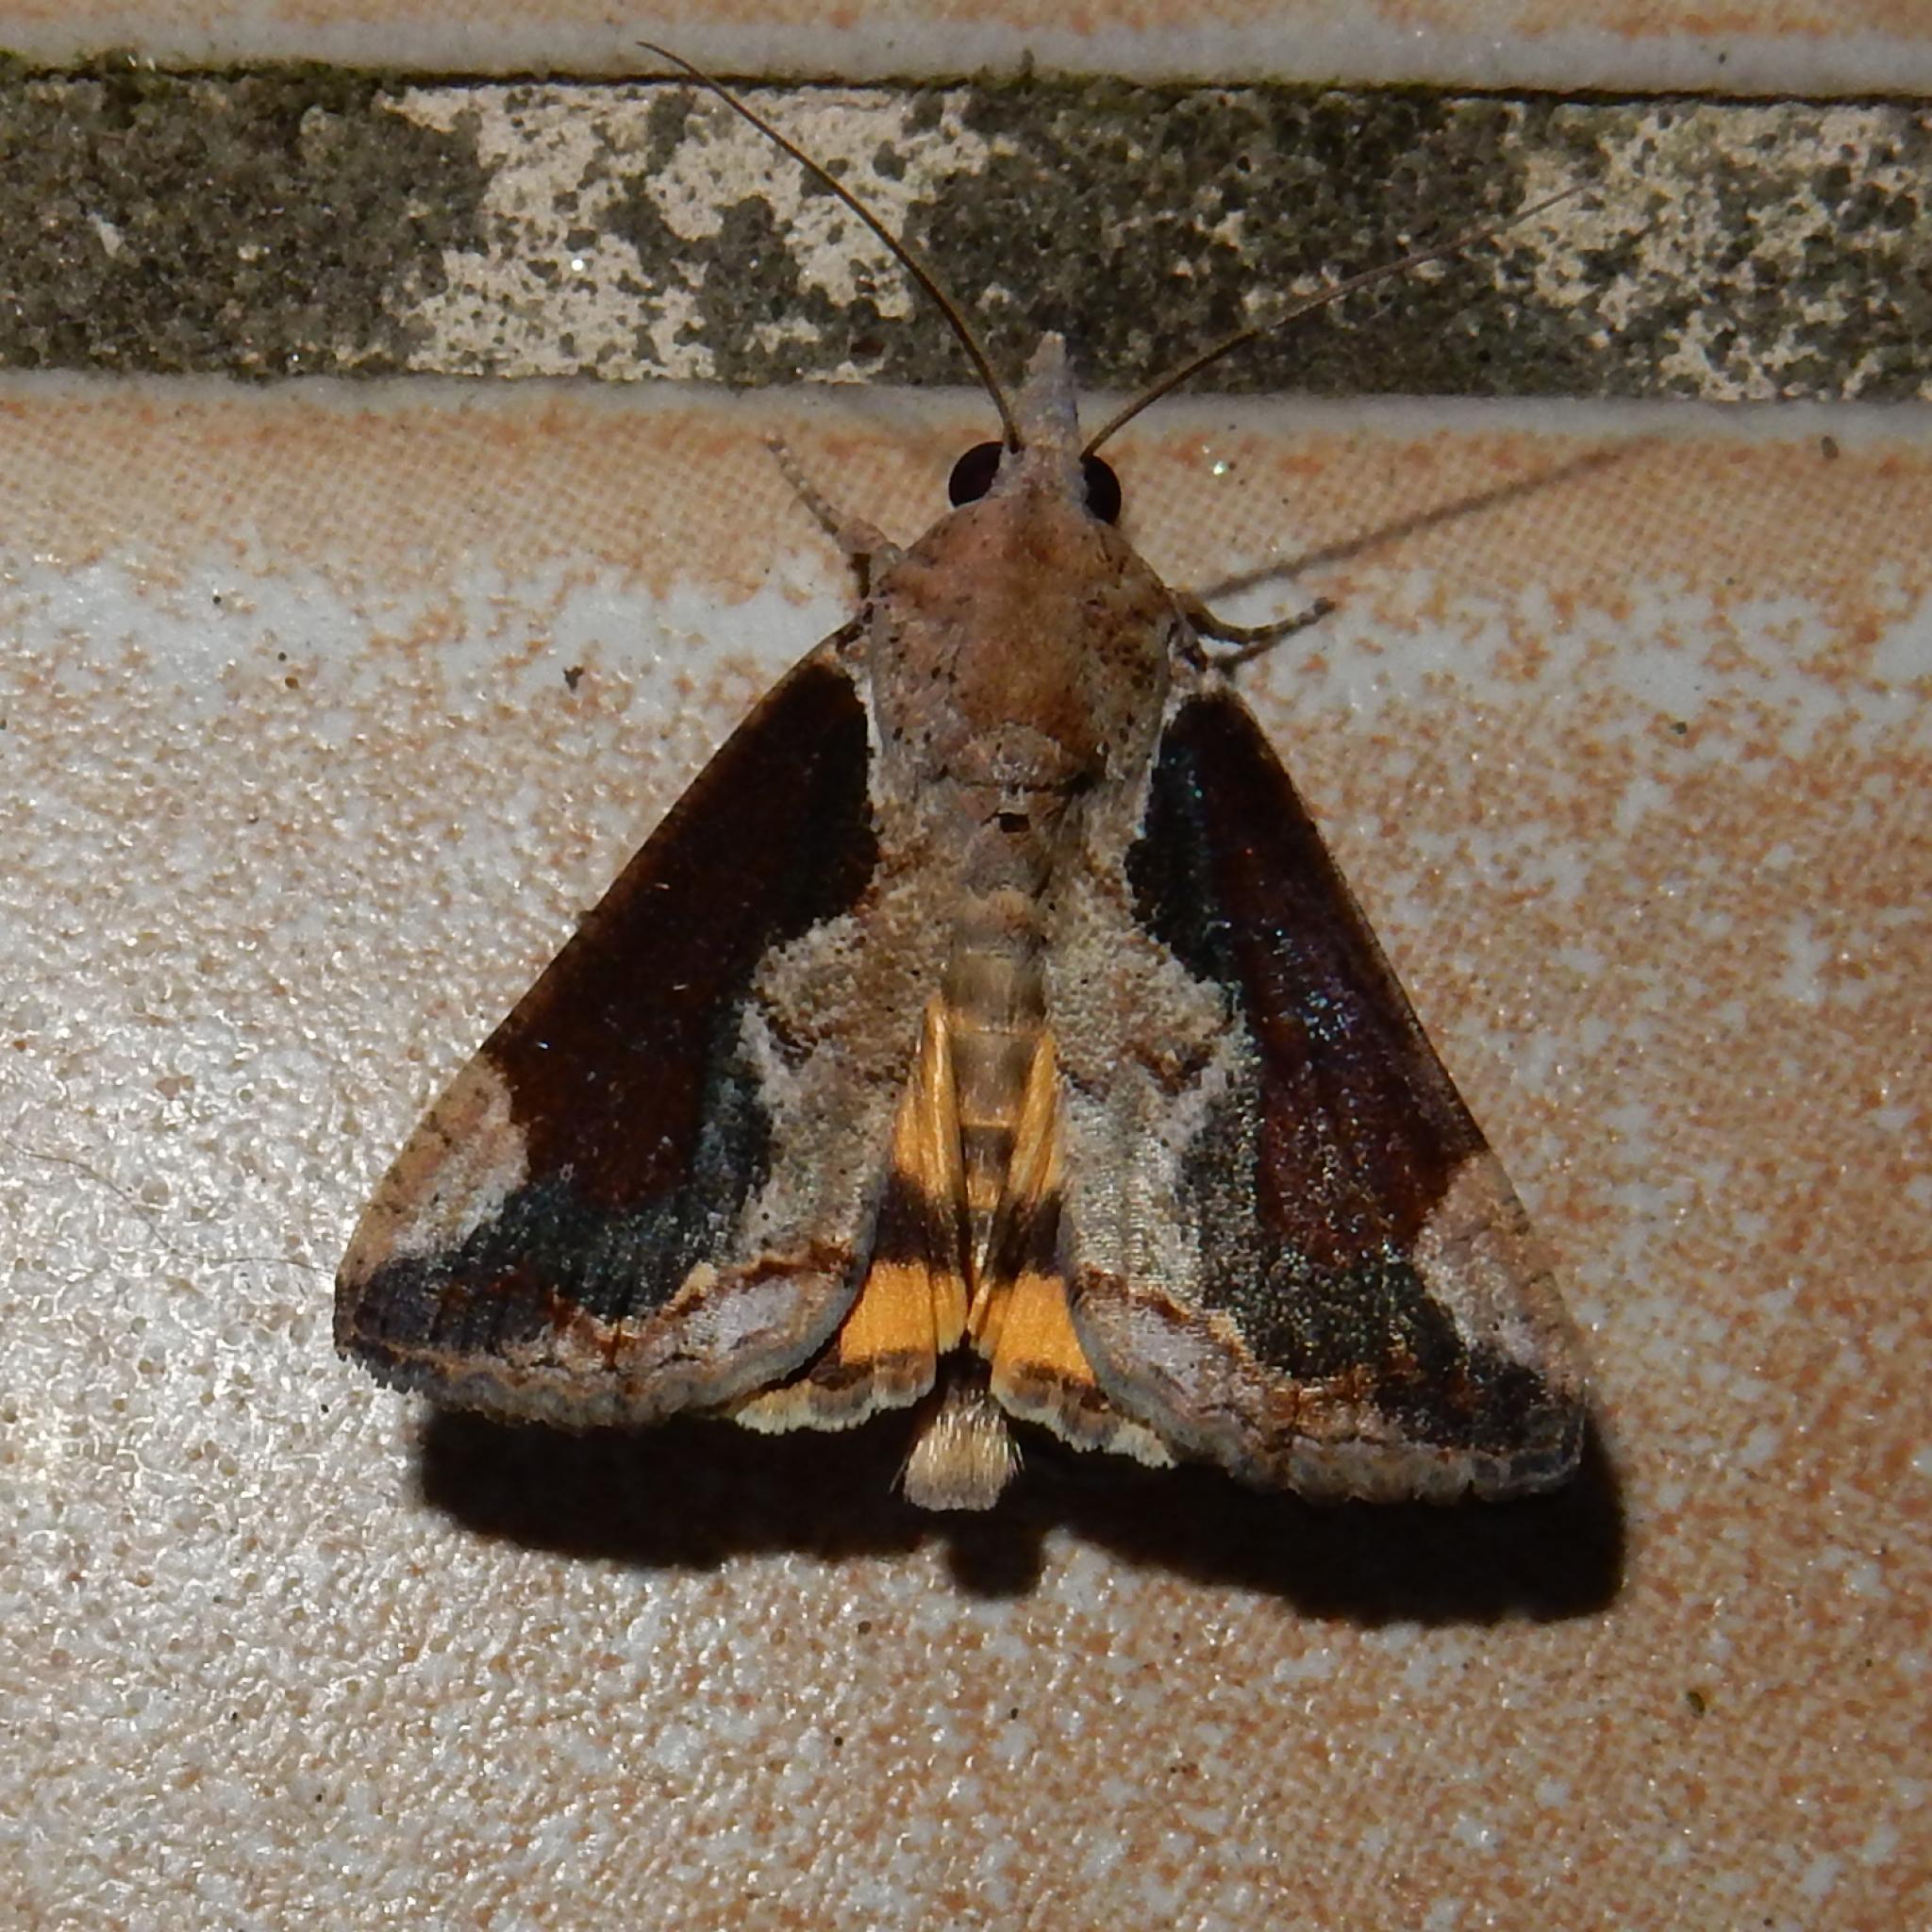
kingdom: Animalia
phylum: Arthropoda
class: Insecta
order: Lepidoptera
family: Erebidae
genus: Hypocala
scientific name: Hypocala rostrata
